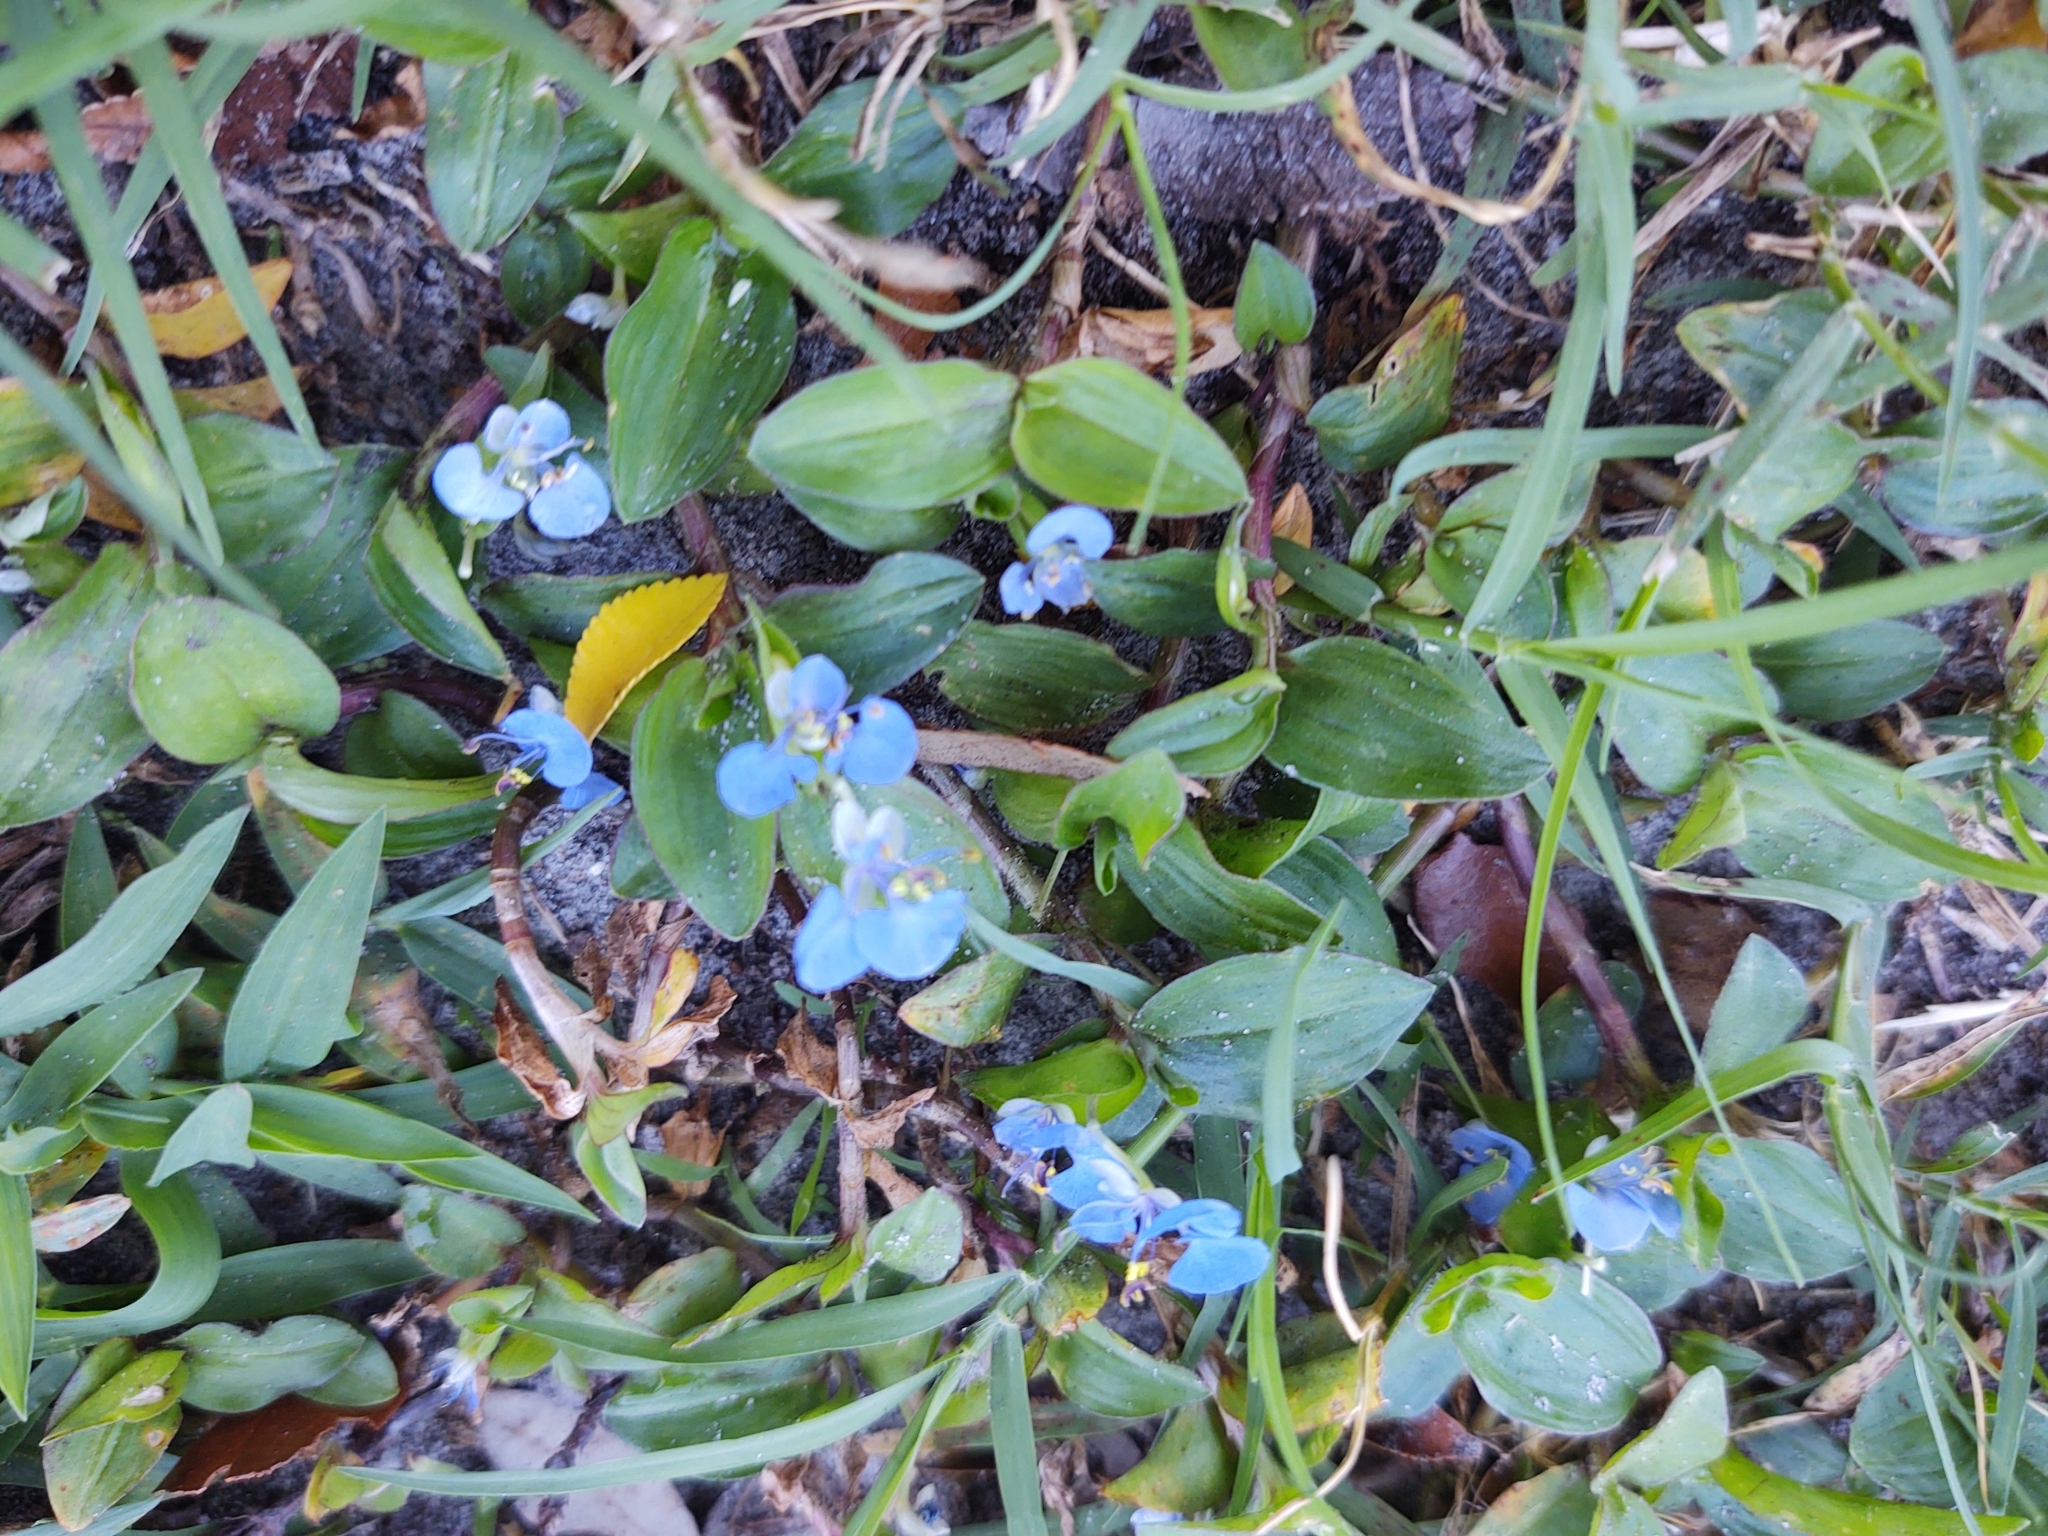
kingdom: Plantae
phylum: Tracheophyta
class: Liliopsida
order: Commelinales
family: Commelinaceae
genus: Commelina
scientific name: Commelina diffusa
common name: Climbing dayflower
